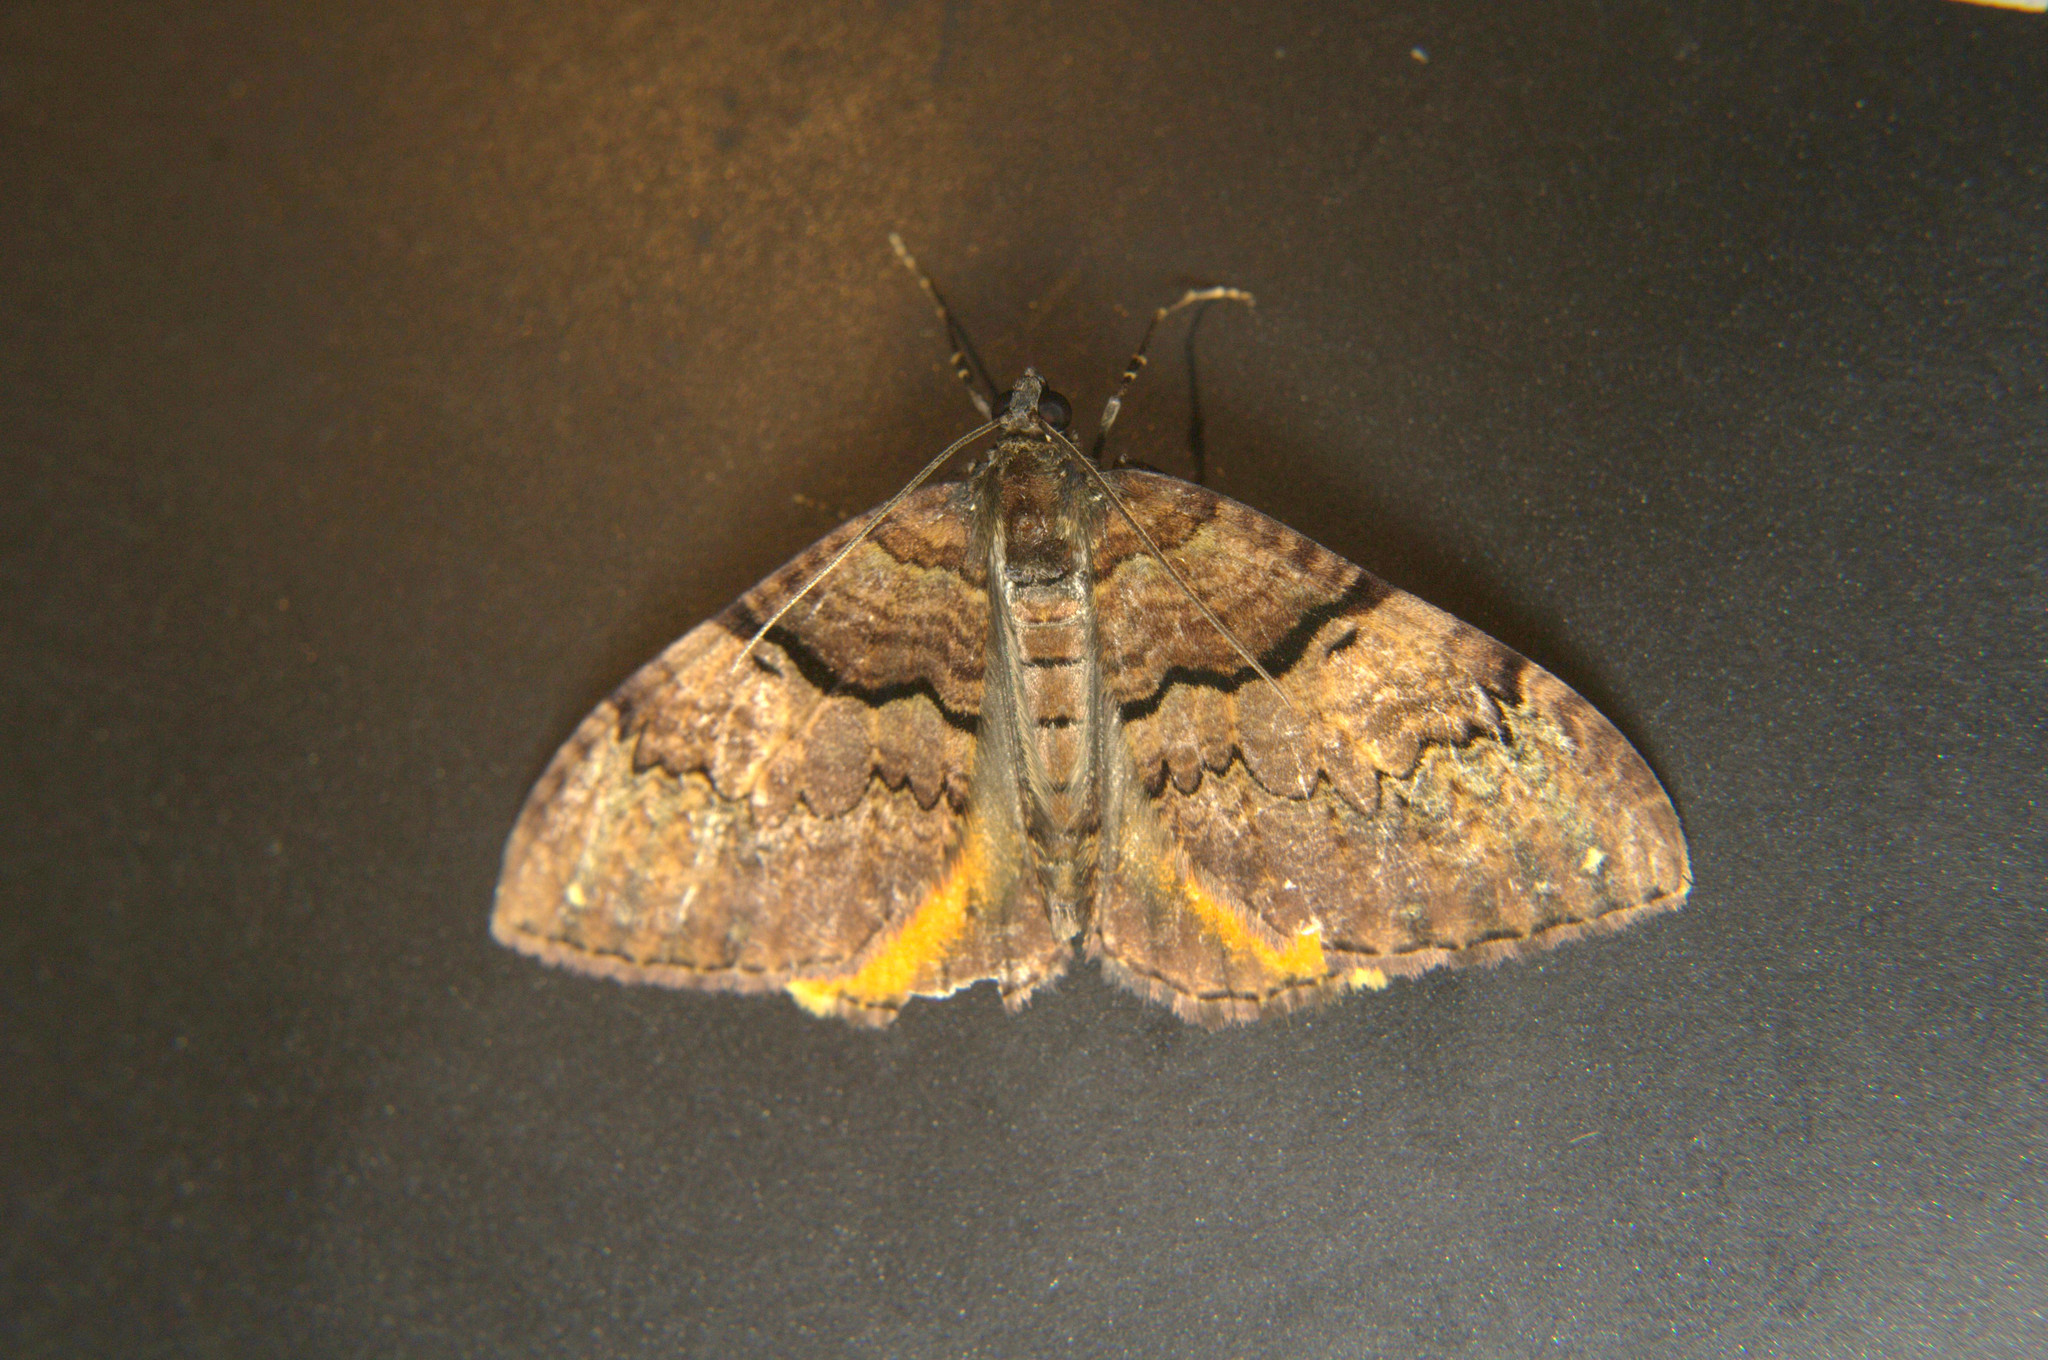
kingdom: Animalia
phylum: Arthropoda
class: Insecta
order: Lepidoptera
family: Geometridae
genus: Photoscotosia
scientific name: Photoscotosia miniosata
